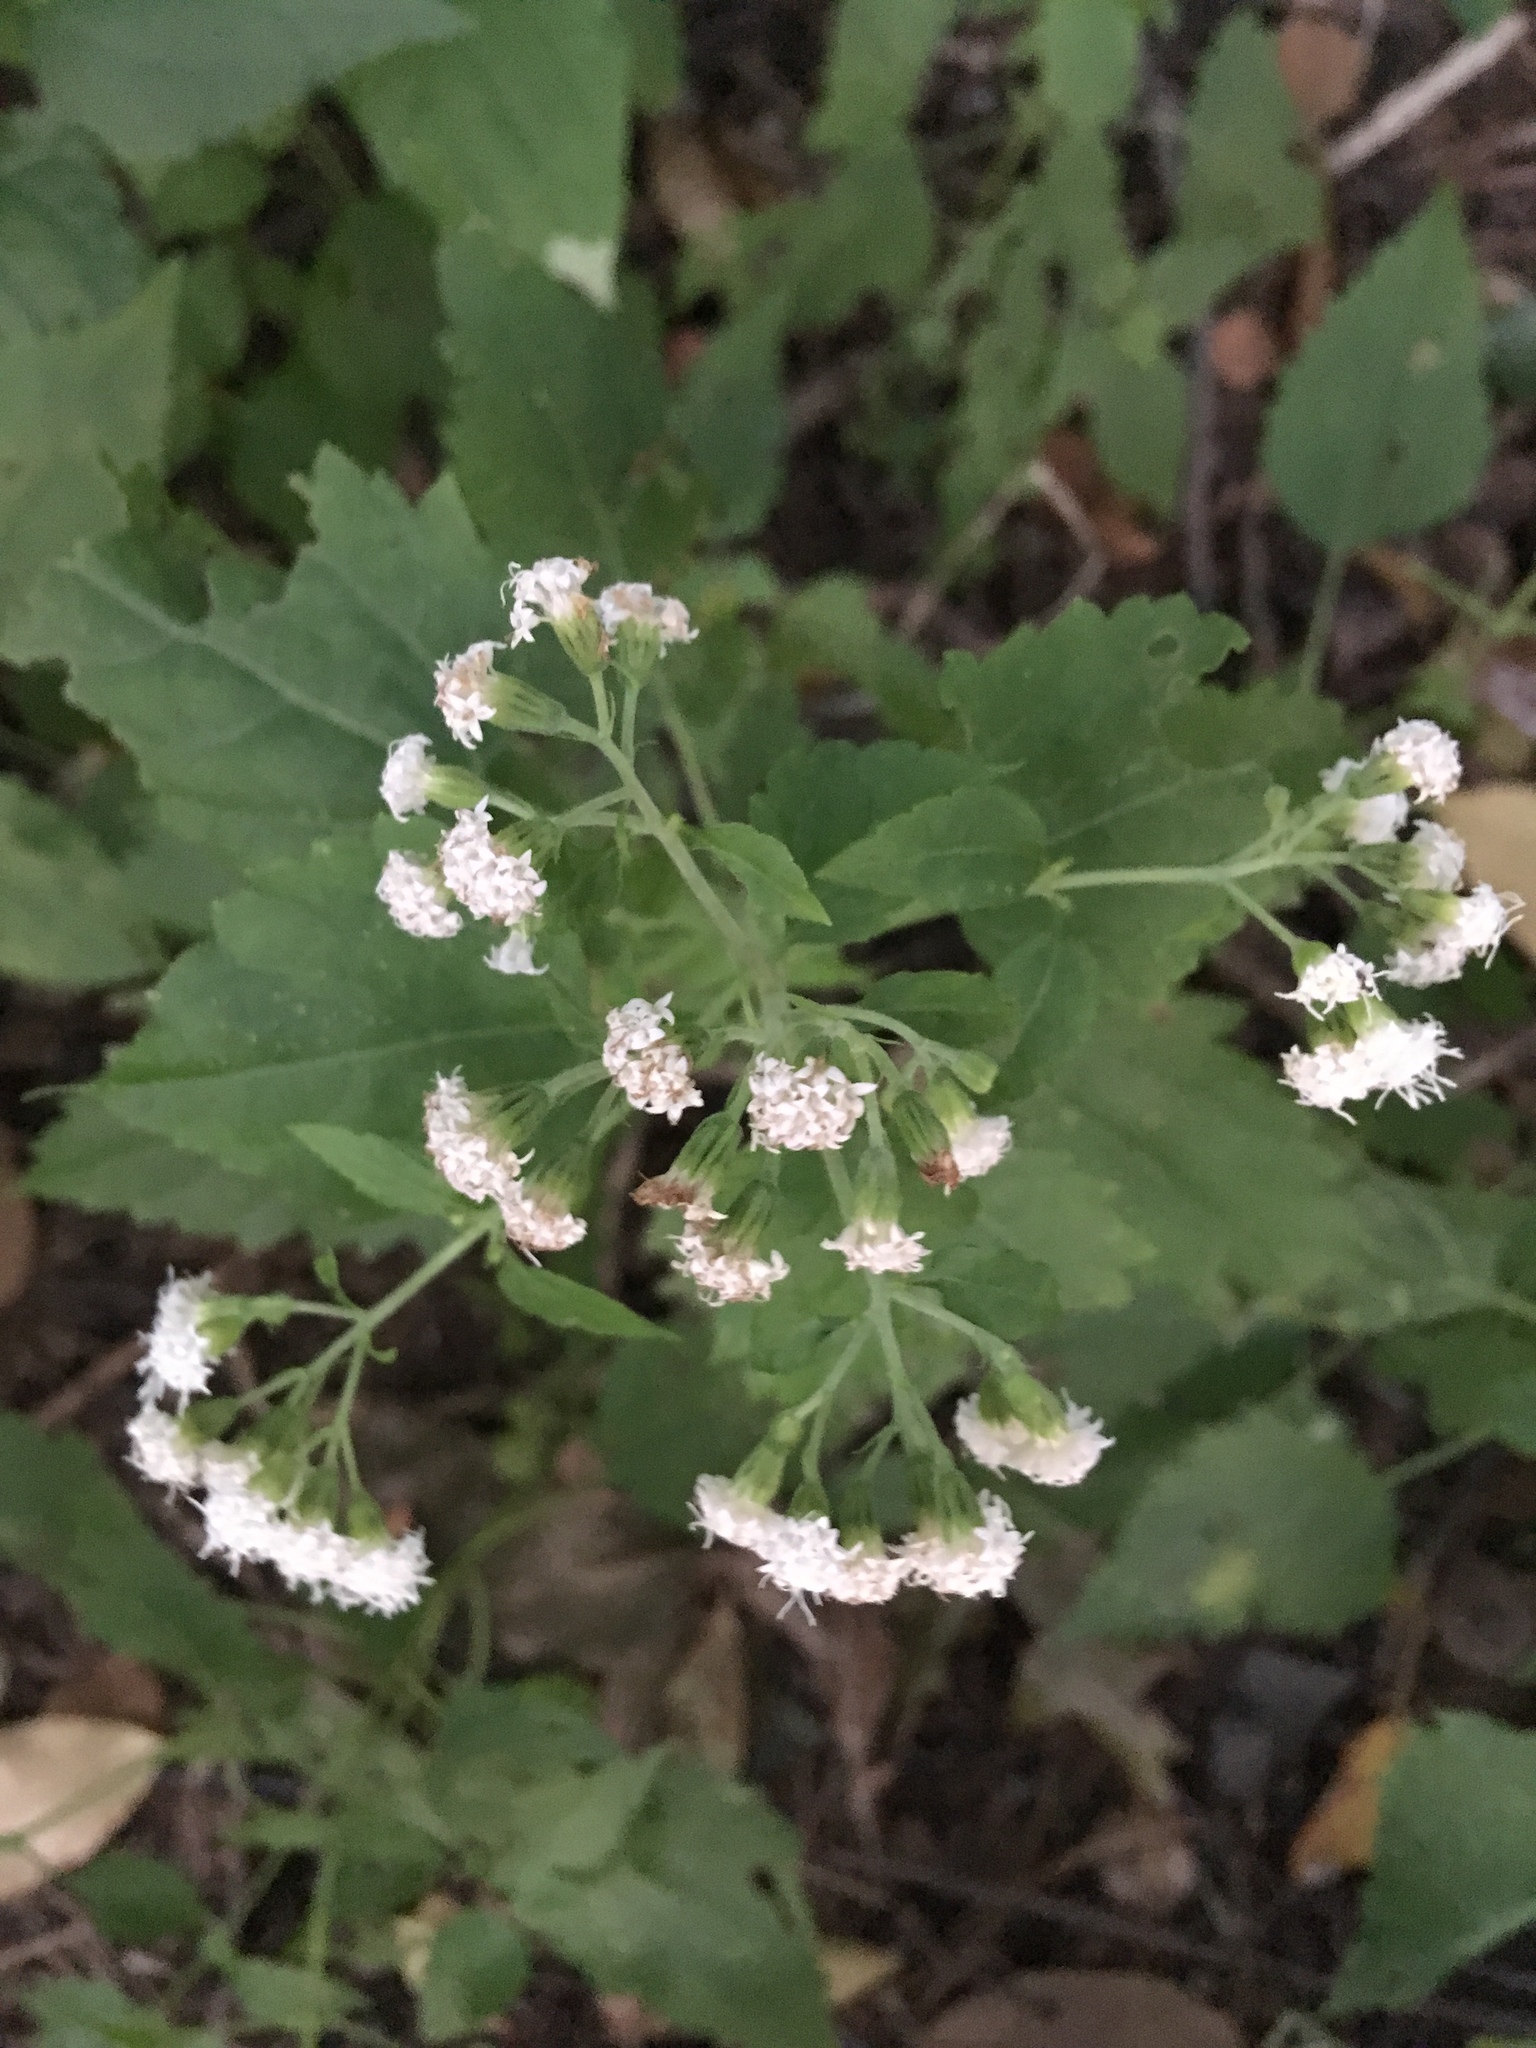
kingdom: Plantae
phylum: Tracheophyta
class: Magnoliopsida
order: Asterales
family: Asteraceae
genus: Ageratina
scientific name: Ageratina altissima
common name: White snakeroot
